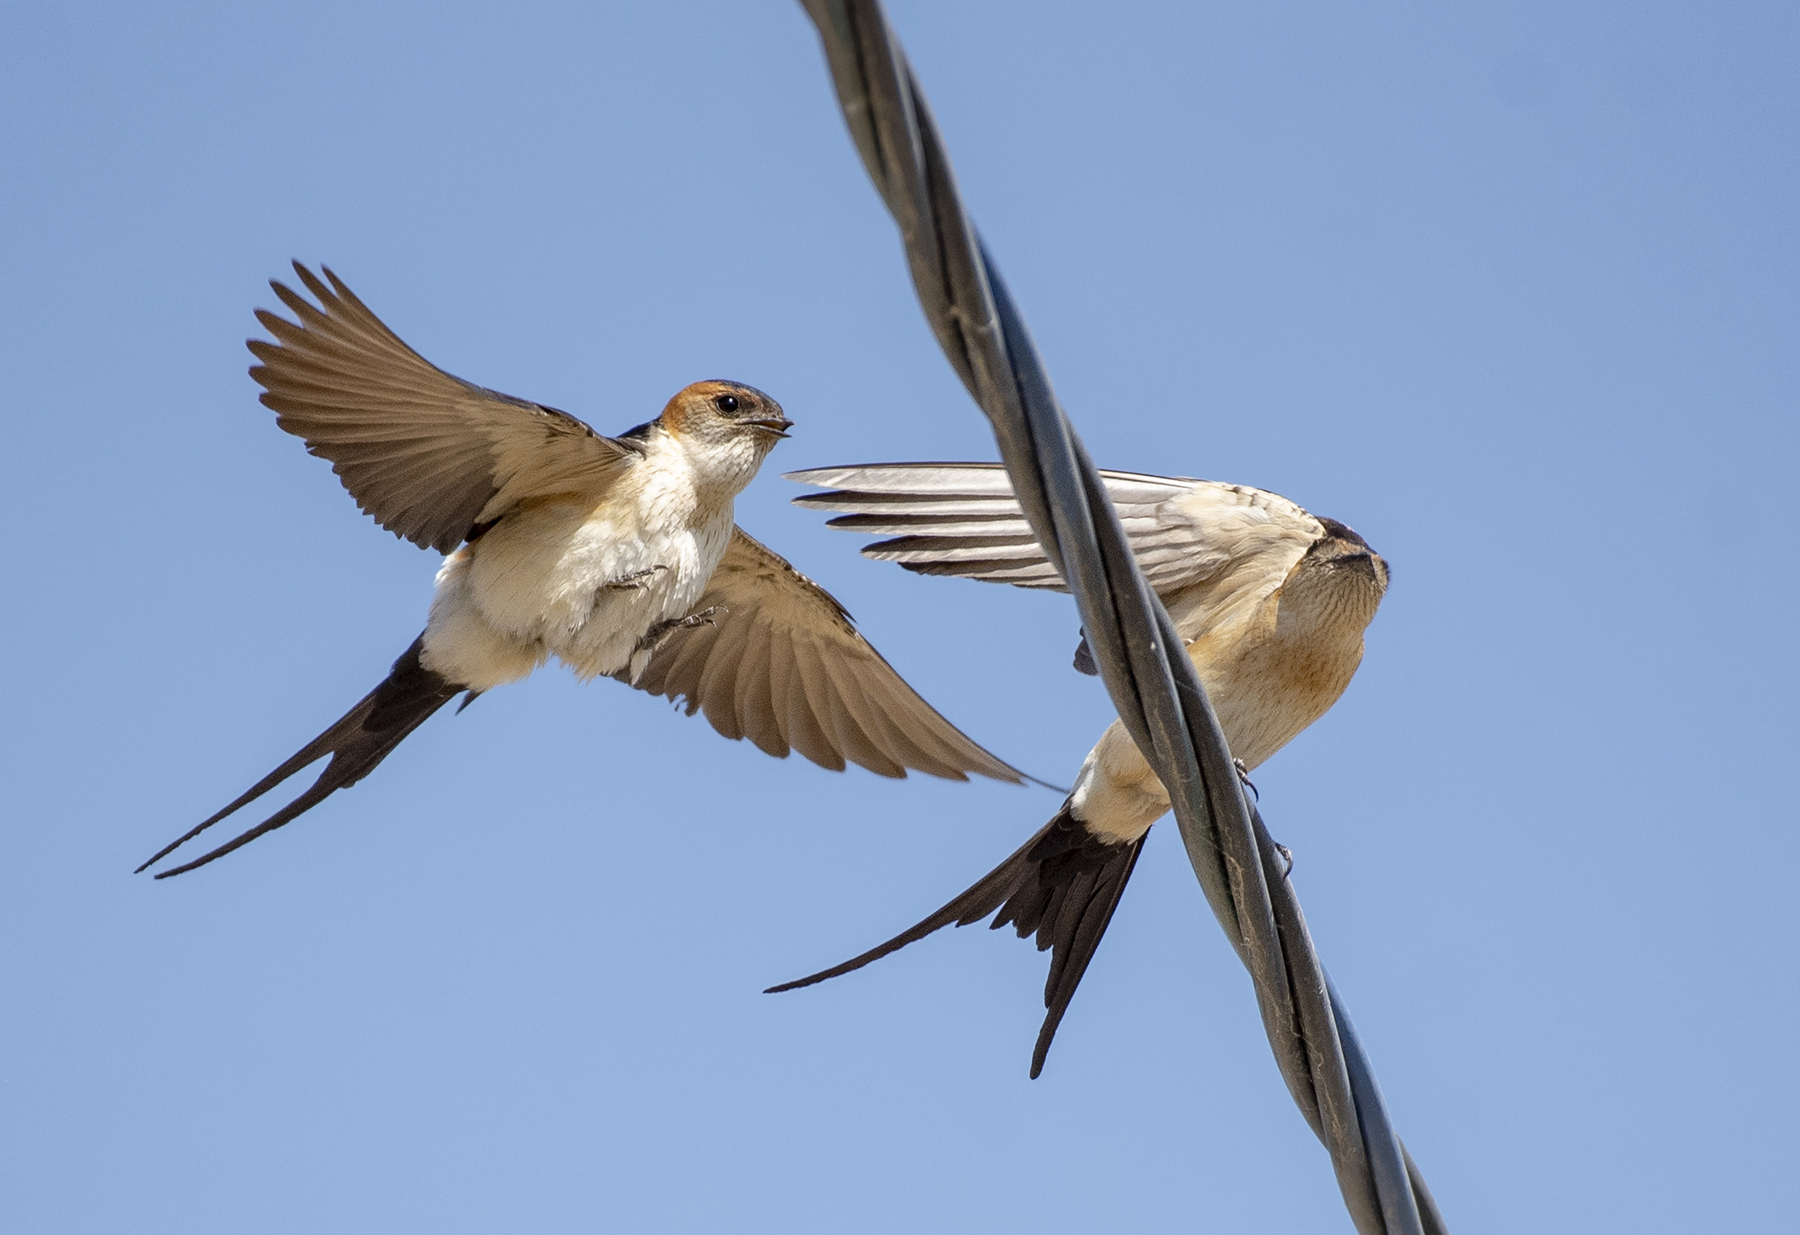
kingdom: Animalia
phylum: Chordata
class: Aves
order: Passeriformes
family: Hirundinidae
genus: Cecropis
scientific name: Cecropis daurica
